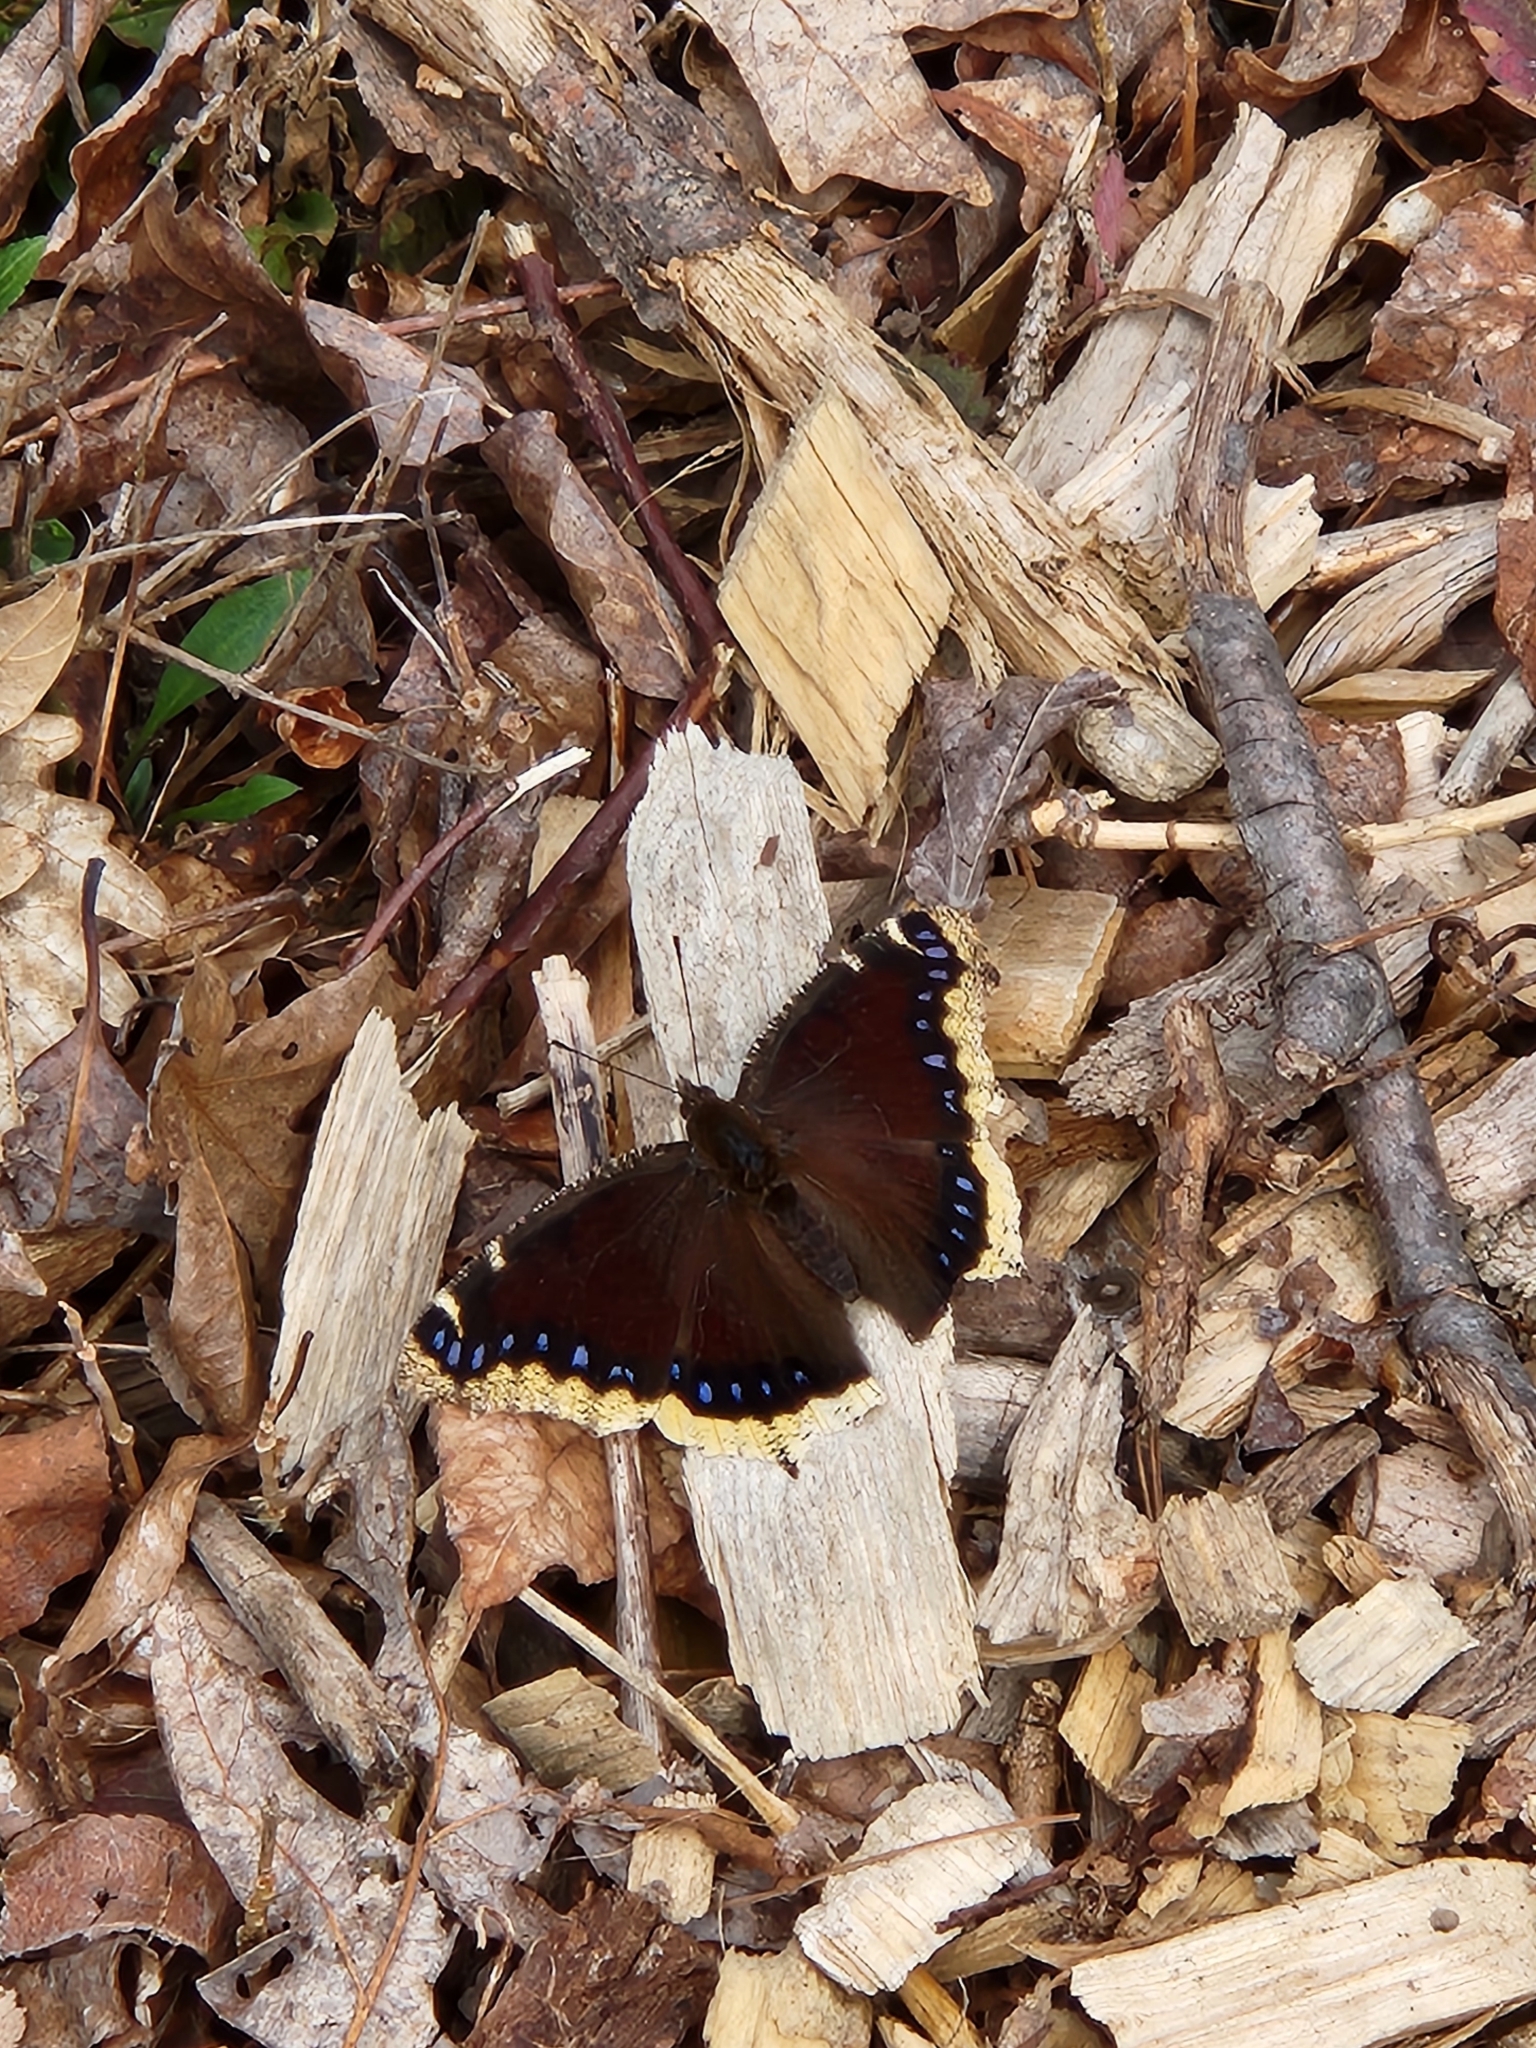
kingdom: Animalia
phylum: Arthropoda
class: Insecta
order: Lepidoptera
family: Nymphalidae
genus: Nymphalis
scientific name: Nymphalis antiopa
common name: Camberwell beauty
